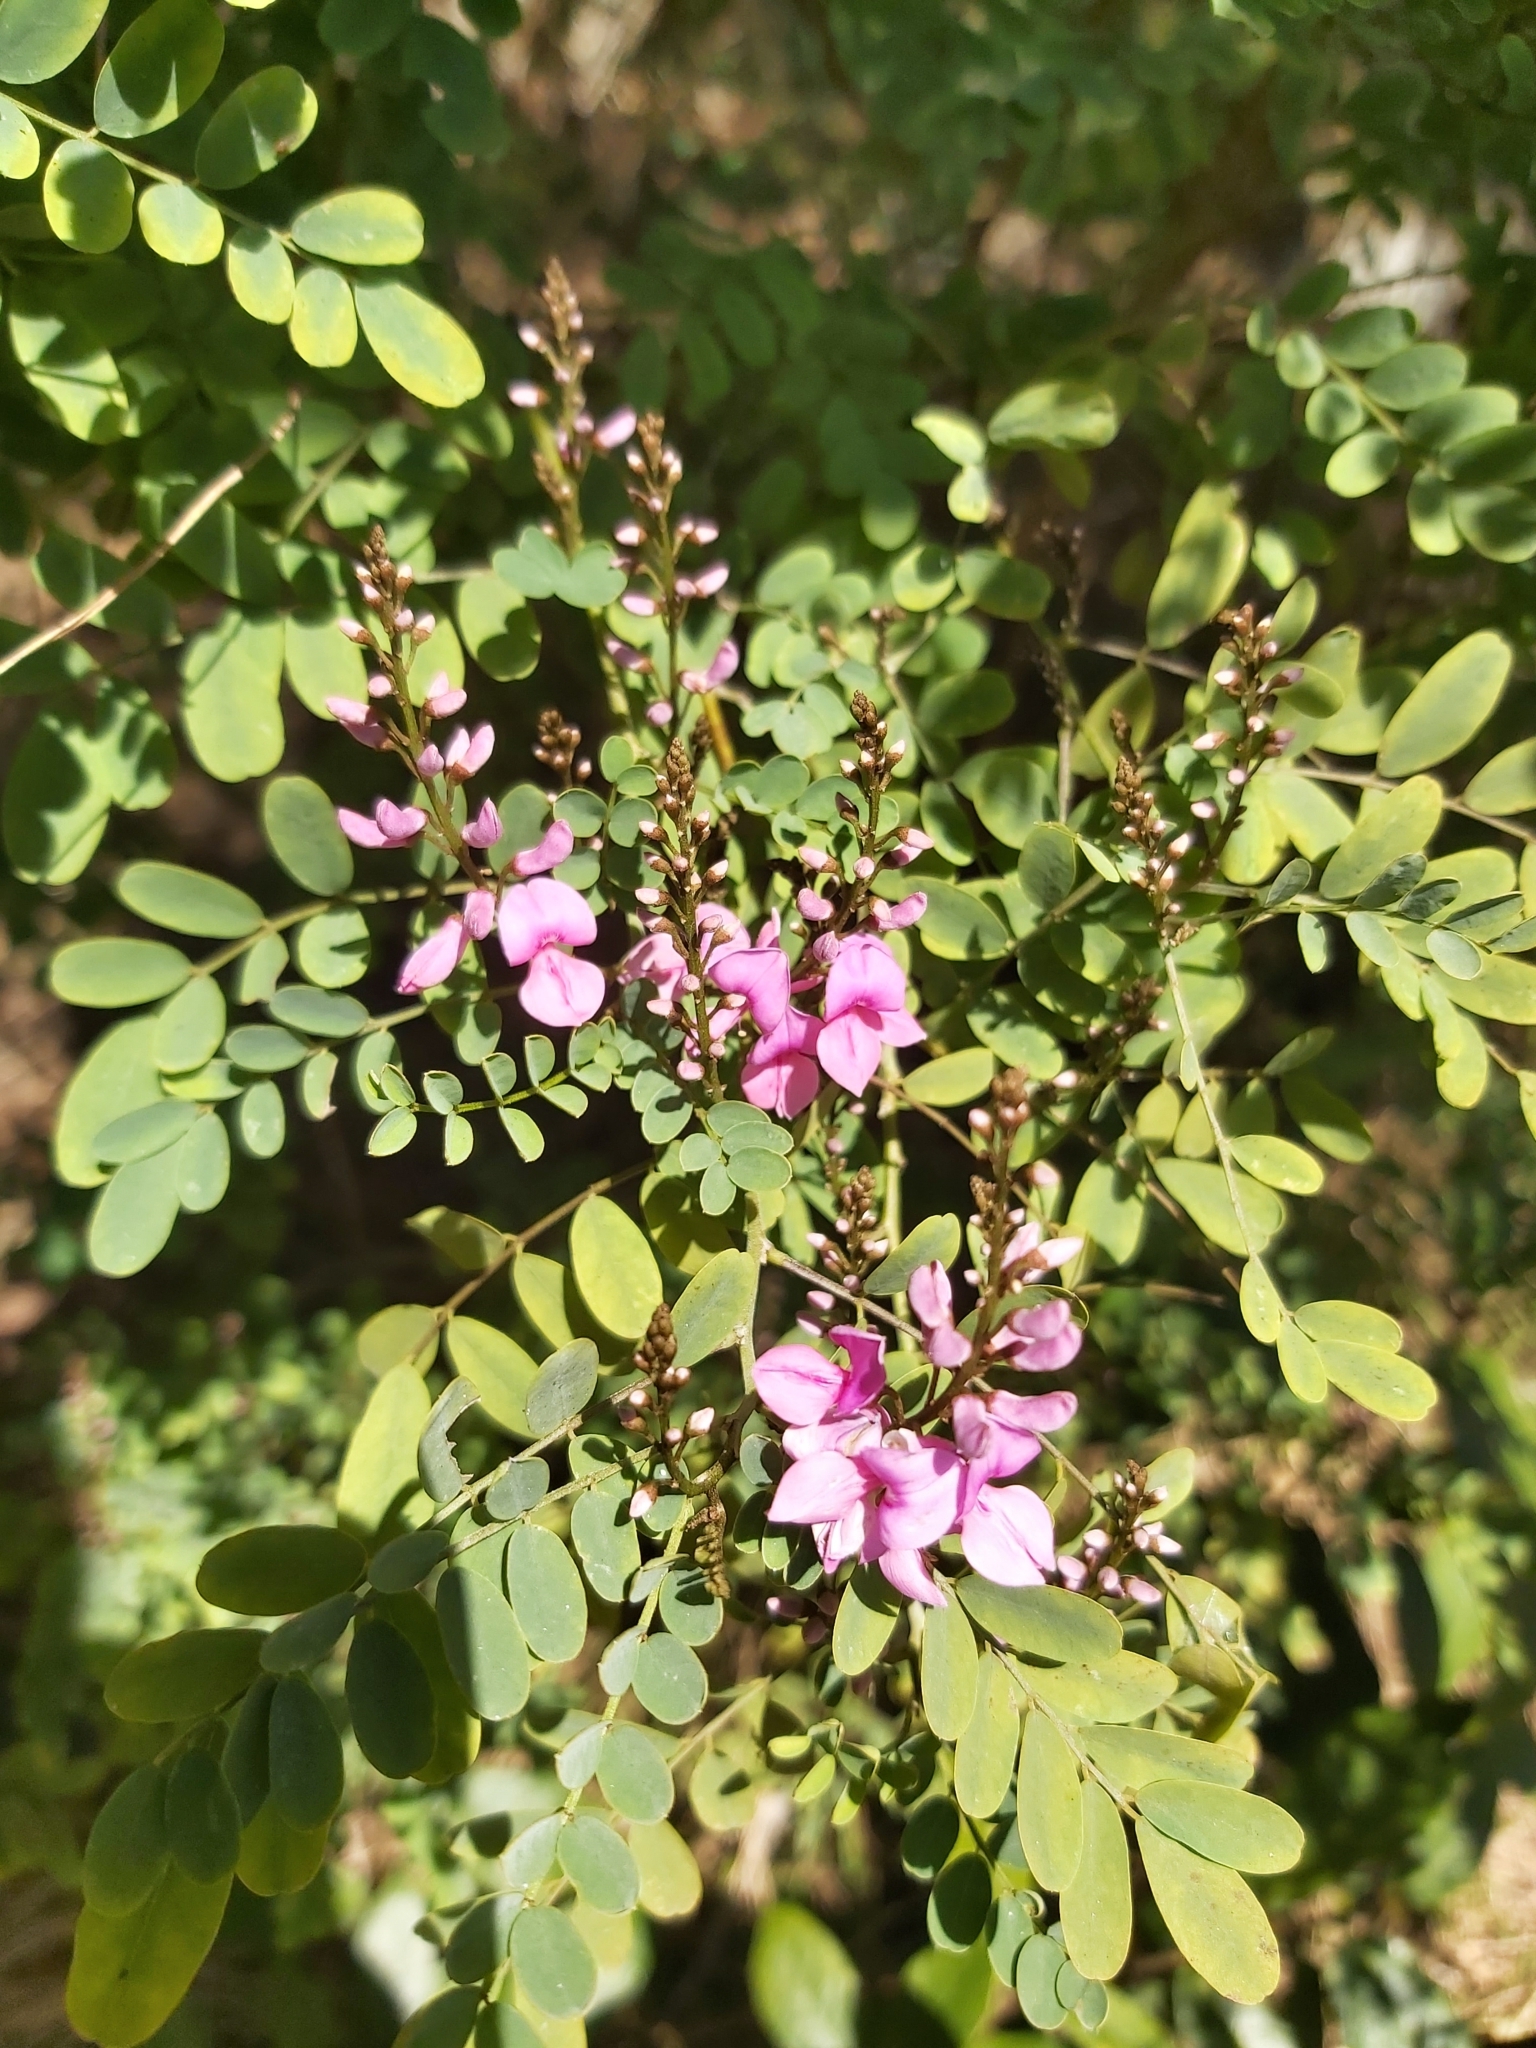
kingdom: Plantae
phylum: Tracheophyta
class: Magnoliopsida
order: Fabales
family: Fabaceae
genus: Indigofera
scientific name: Indigofera australis
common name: Australian indigo
